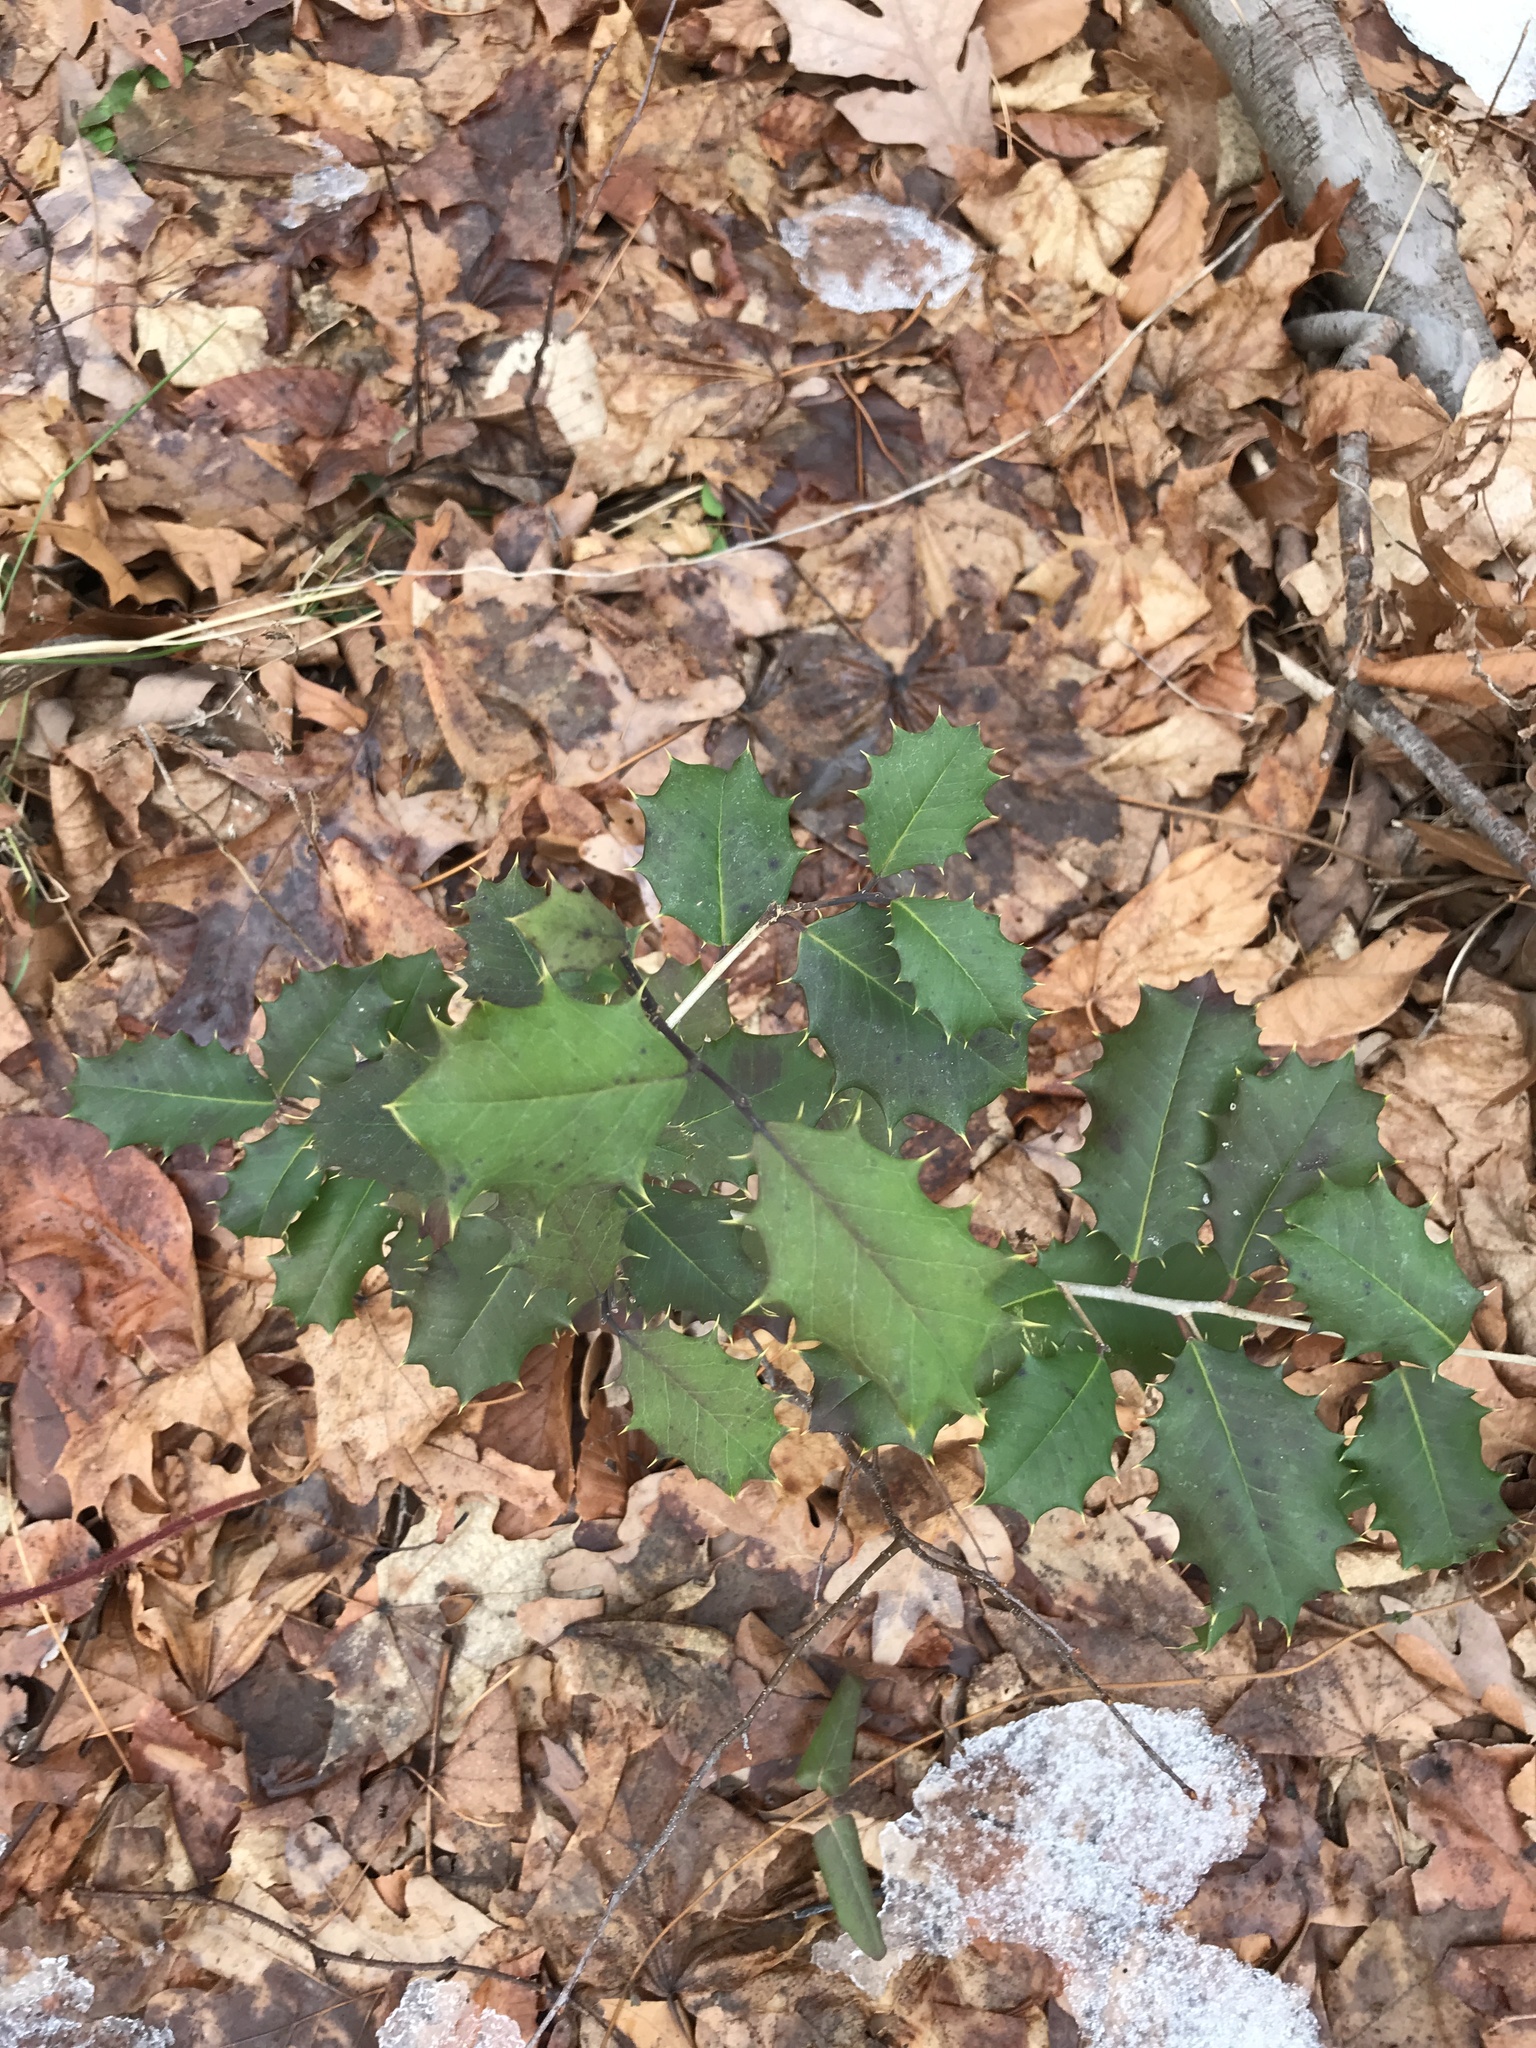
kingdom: Plantae
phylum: Tracheophyta
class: Magnoliopsida
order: Aquifoliales
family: Aquifoliaceae
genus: Ilex
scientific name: Ilex opaca
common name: American holly
